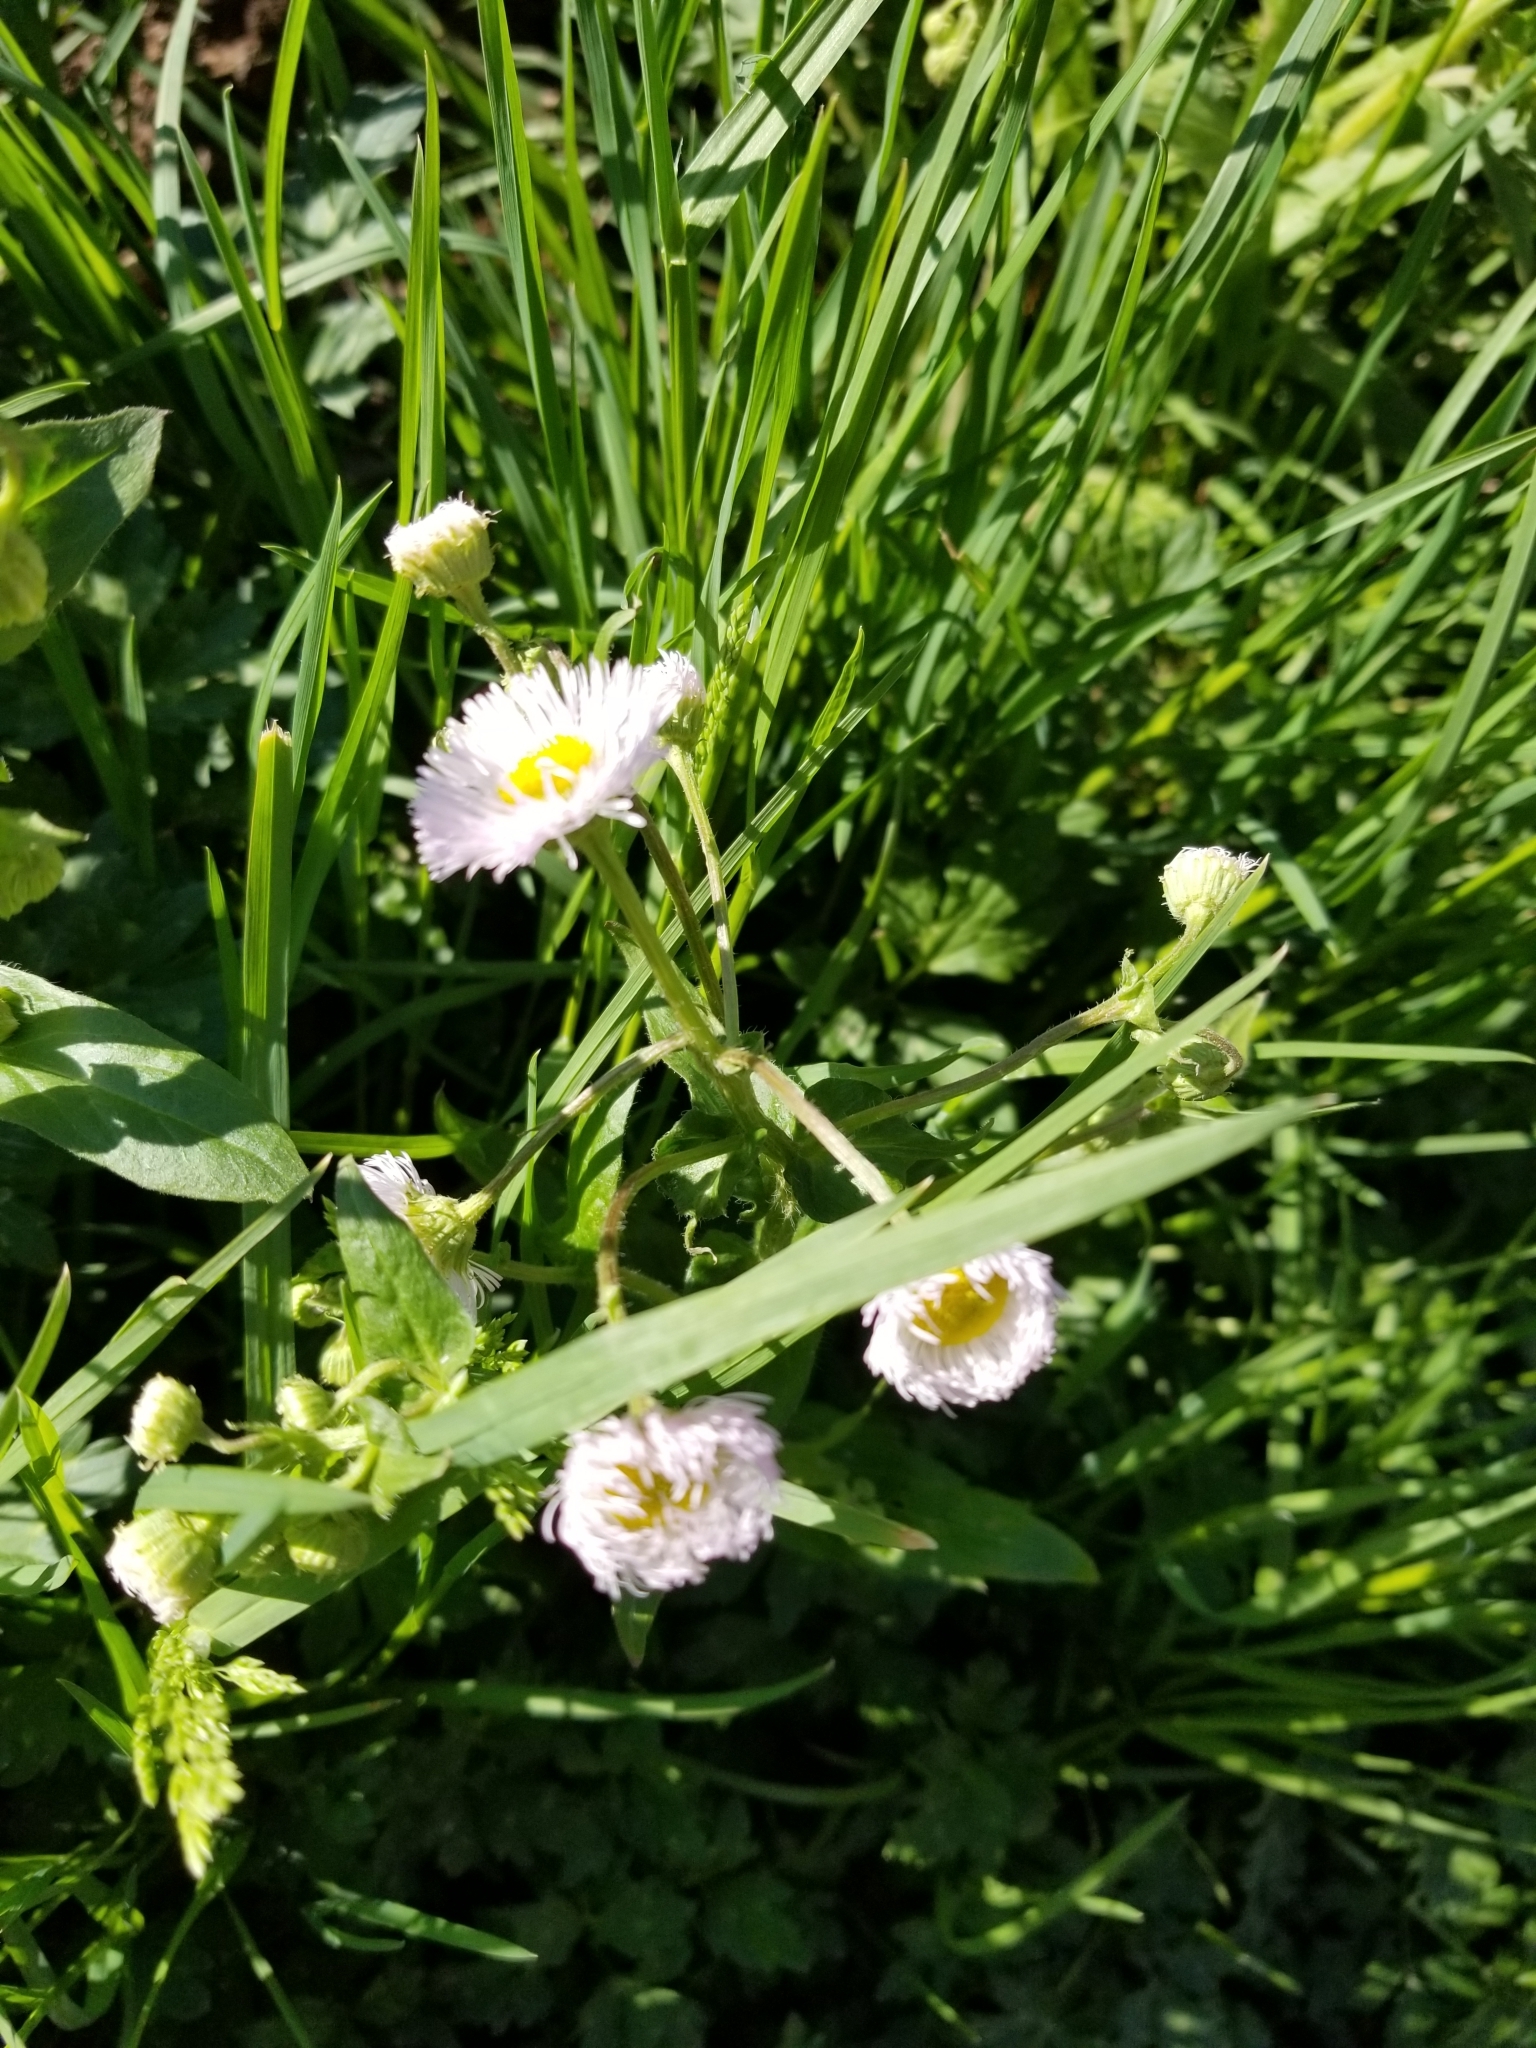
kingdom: Plantae
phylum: Tracheophyta
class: Magnoliopsida
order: Asterales
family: Asteraceae
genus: Erigeron
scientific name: Erigeron philadelphicus
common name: Robin's-plantain
